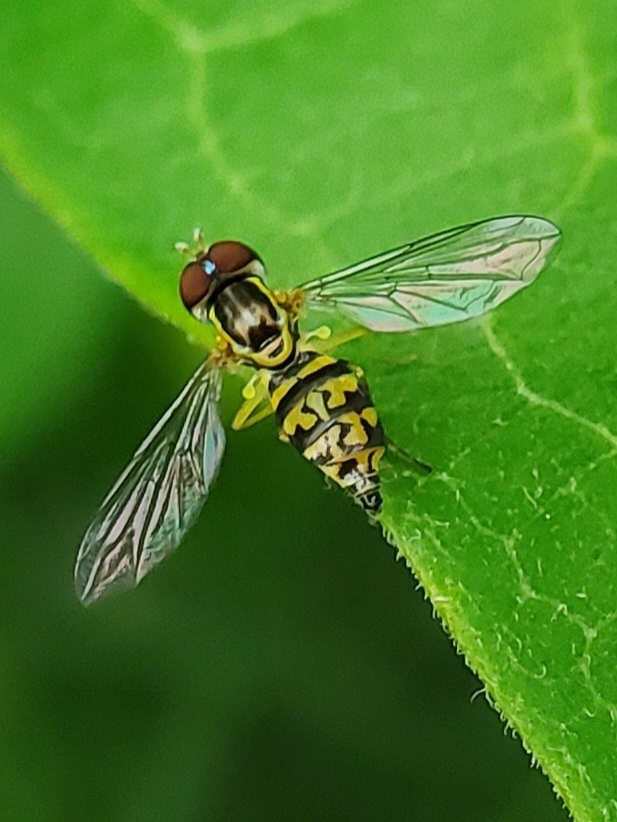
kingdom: Animalia
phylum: Arthropoda
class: Insecta
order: Diptera
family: Syrphidae
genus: Toxomerus
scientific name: Toxomerus geminatus
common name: Eastern calligrapher
